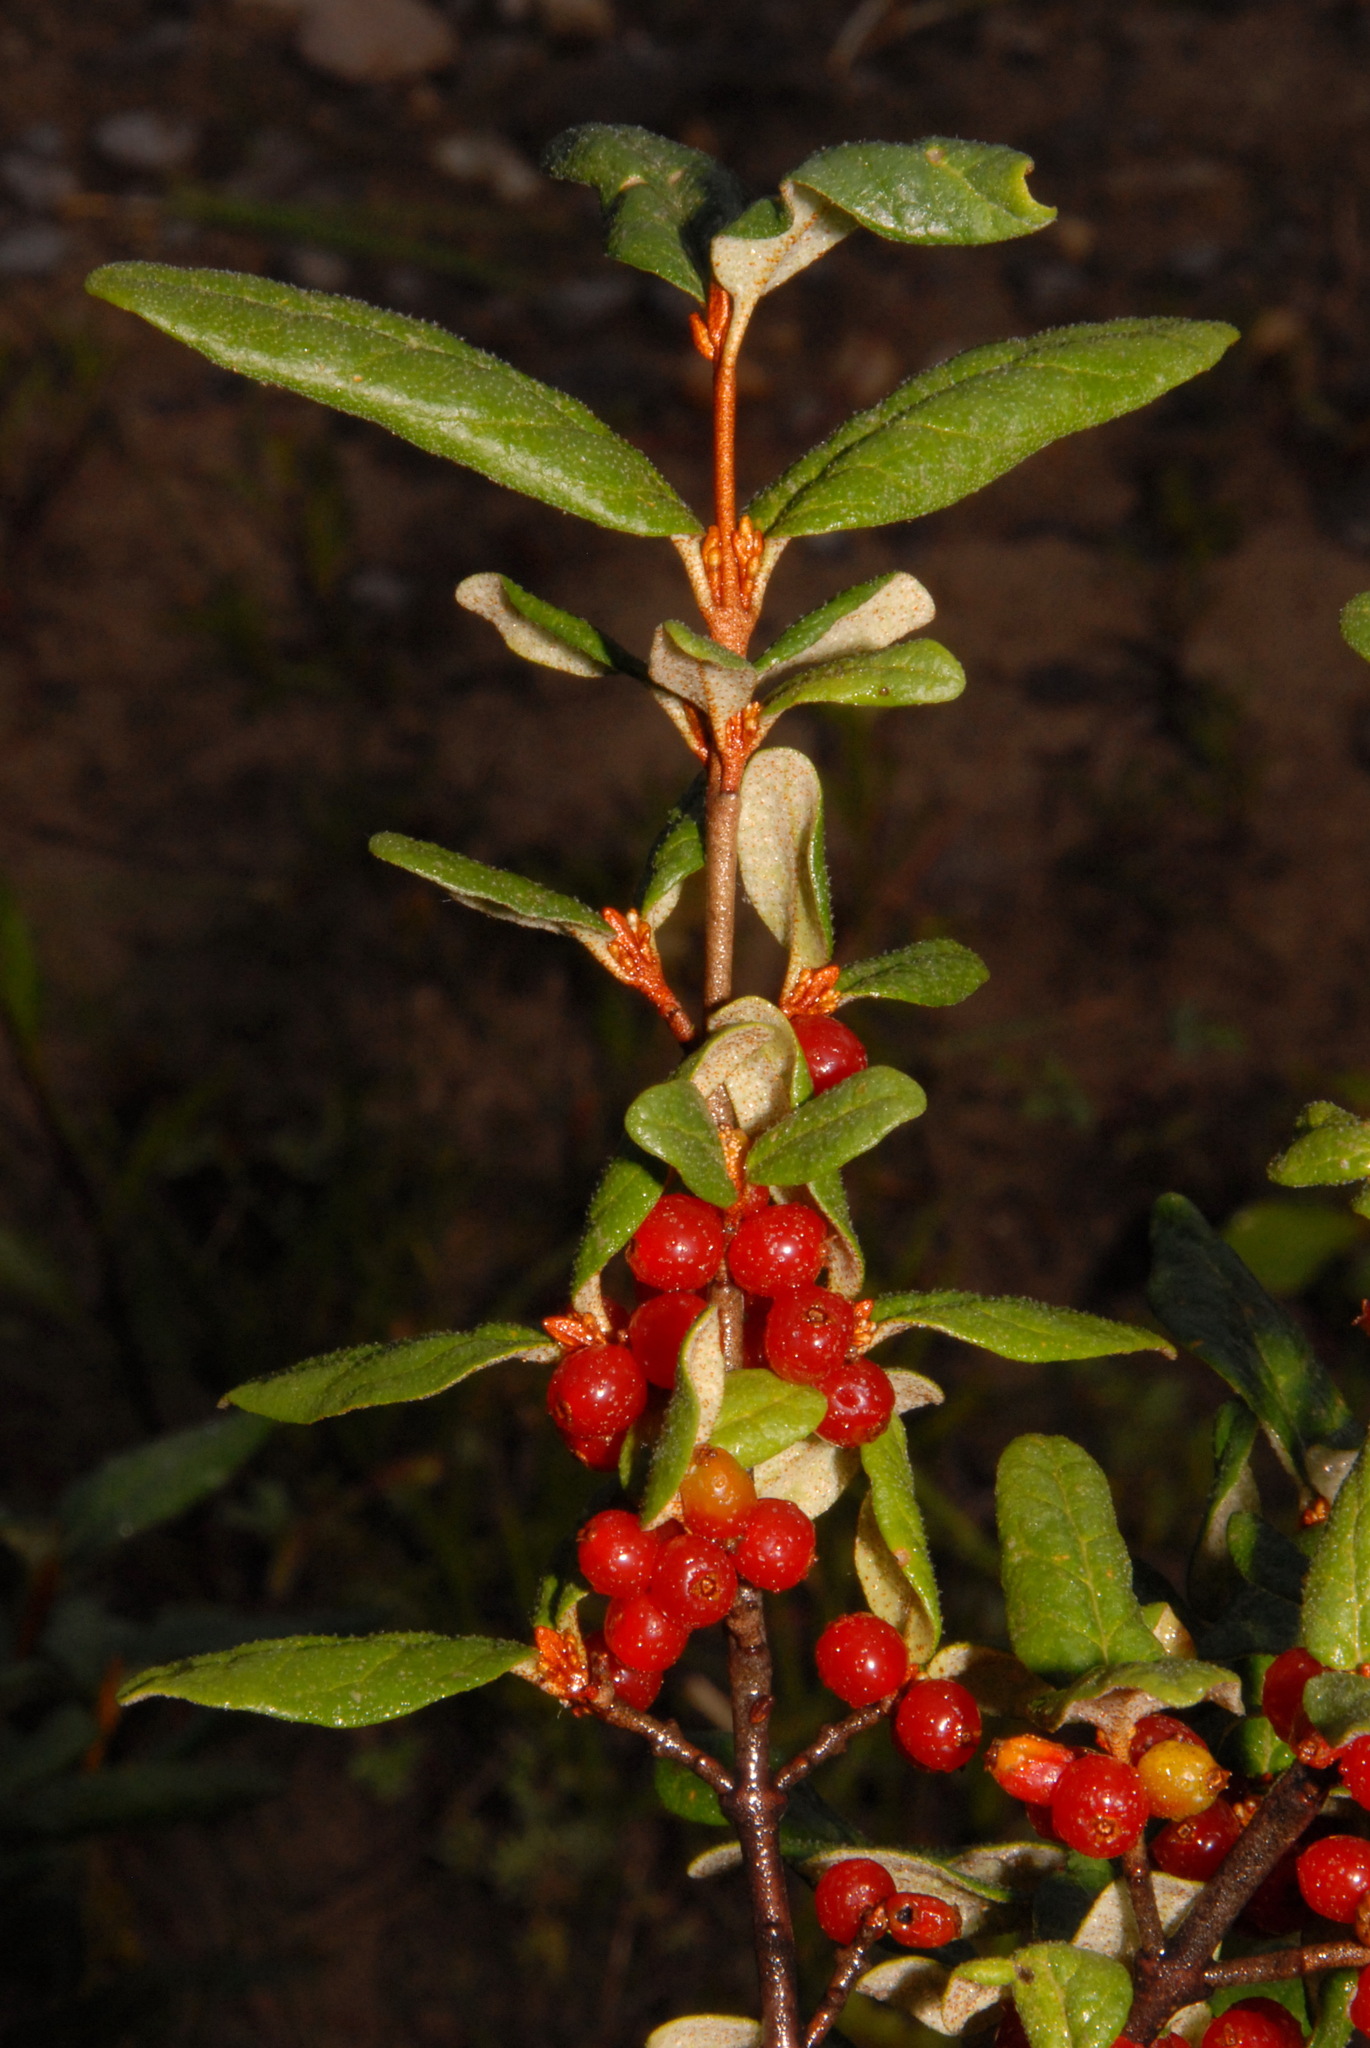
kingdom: Plantae
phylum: Tracheophyta
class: Magnoliopsida
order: Rosales
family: Elaeagnaceae
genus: Shepherdia
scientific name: Shepherdia canadensis
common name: Soapberry
